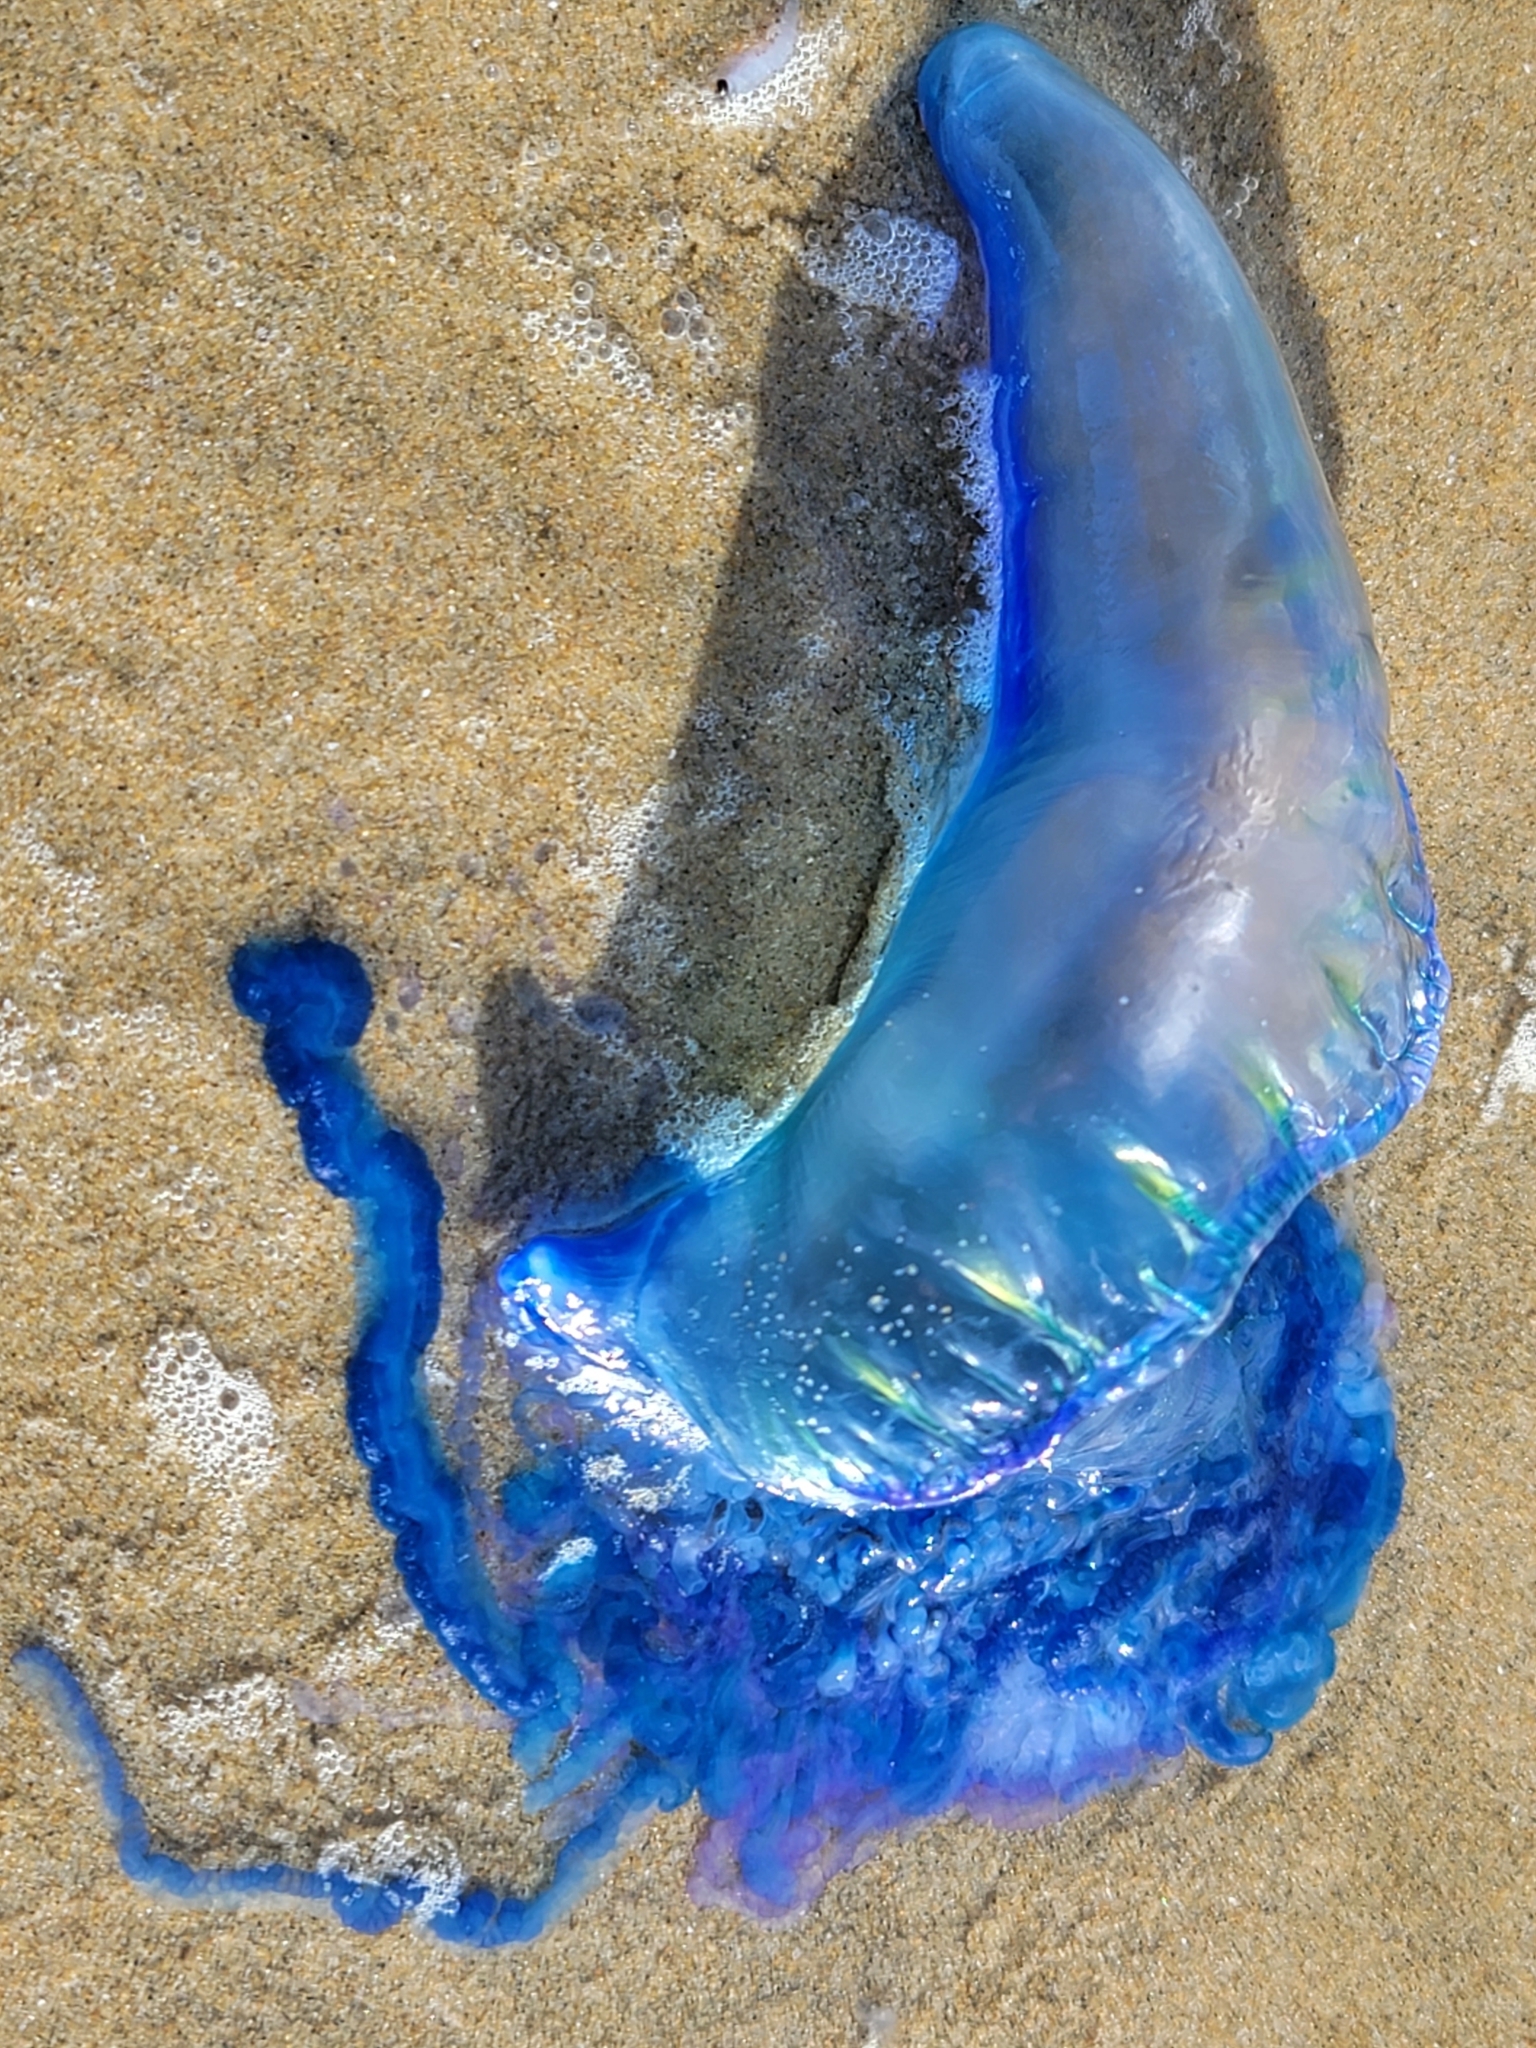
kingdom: Animalia
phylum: Cnidaria
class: Hydrozoa
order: Siphonophorae
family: Physaliidae
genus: Physalia
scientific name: Physalia physalis
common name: Portuguese man-of-war
